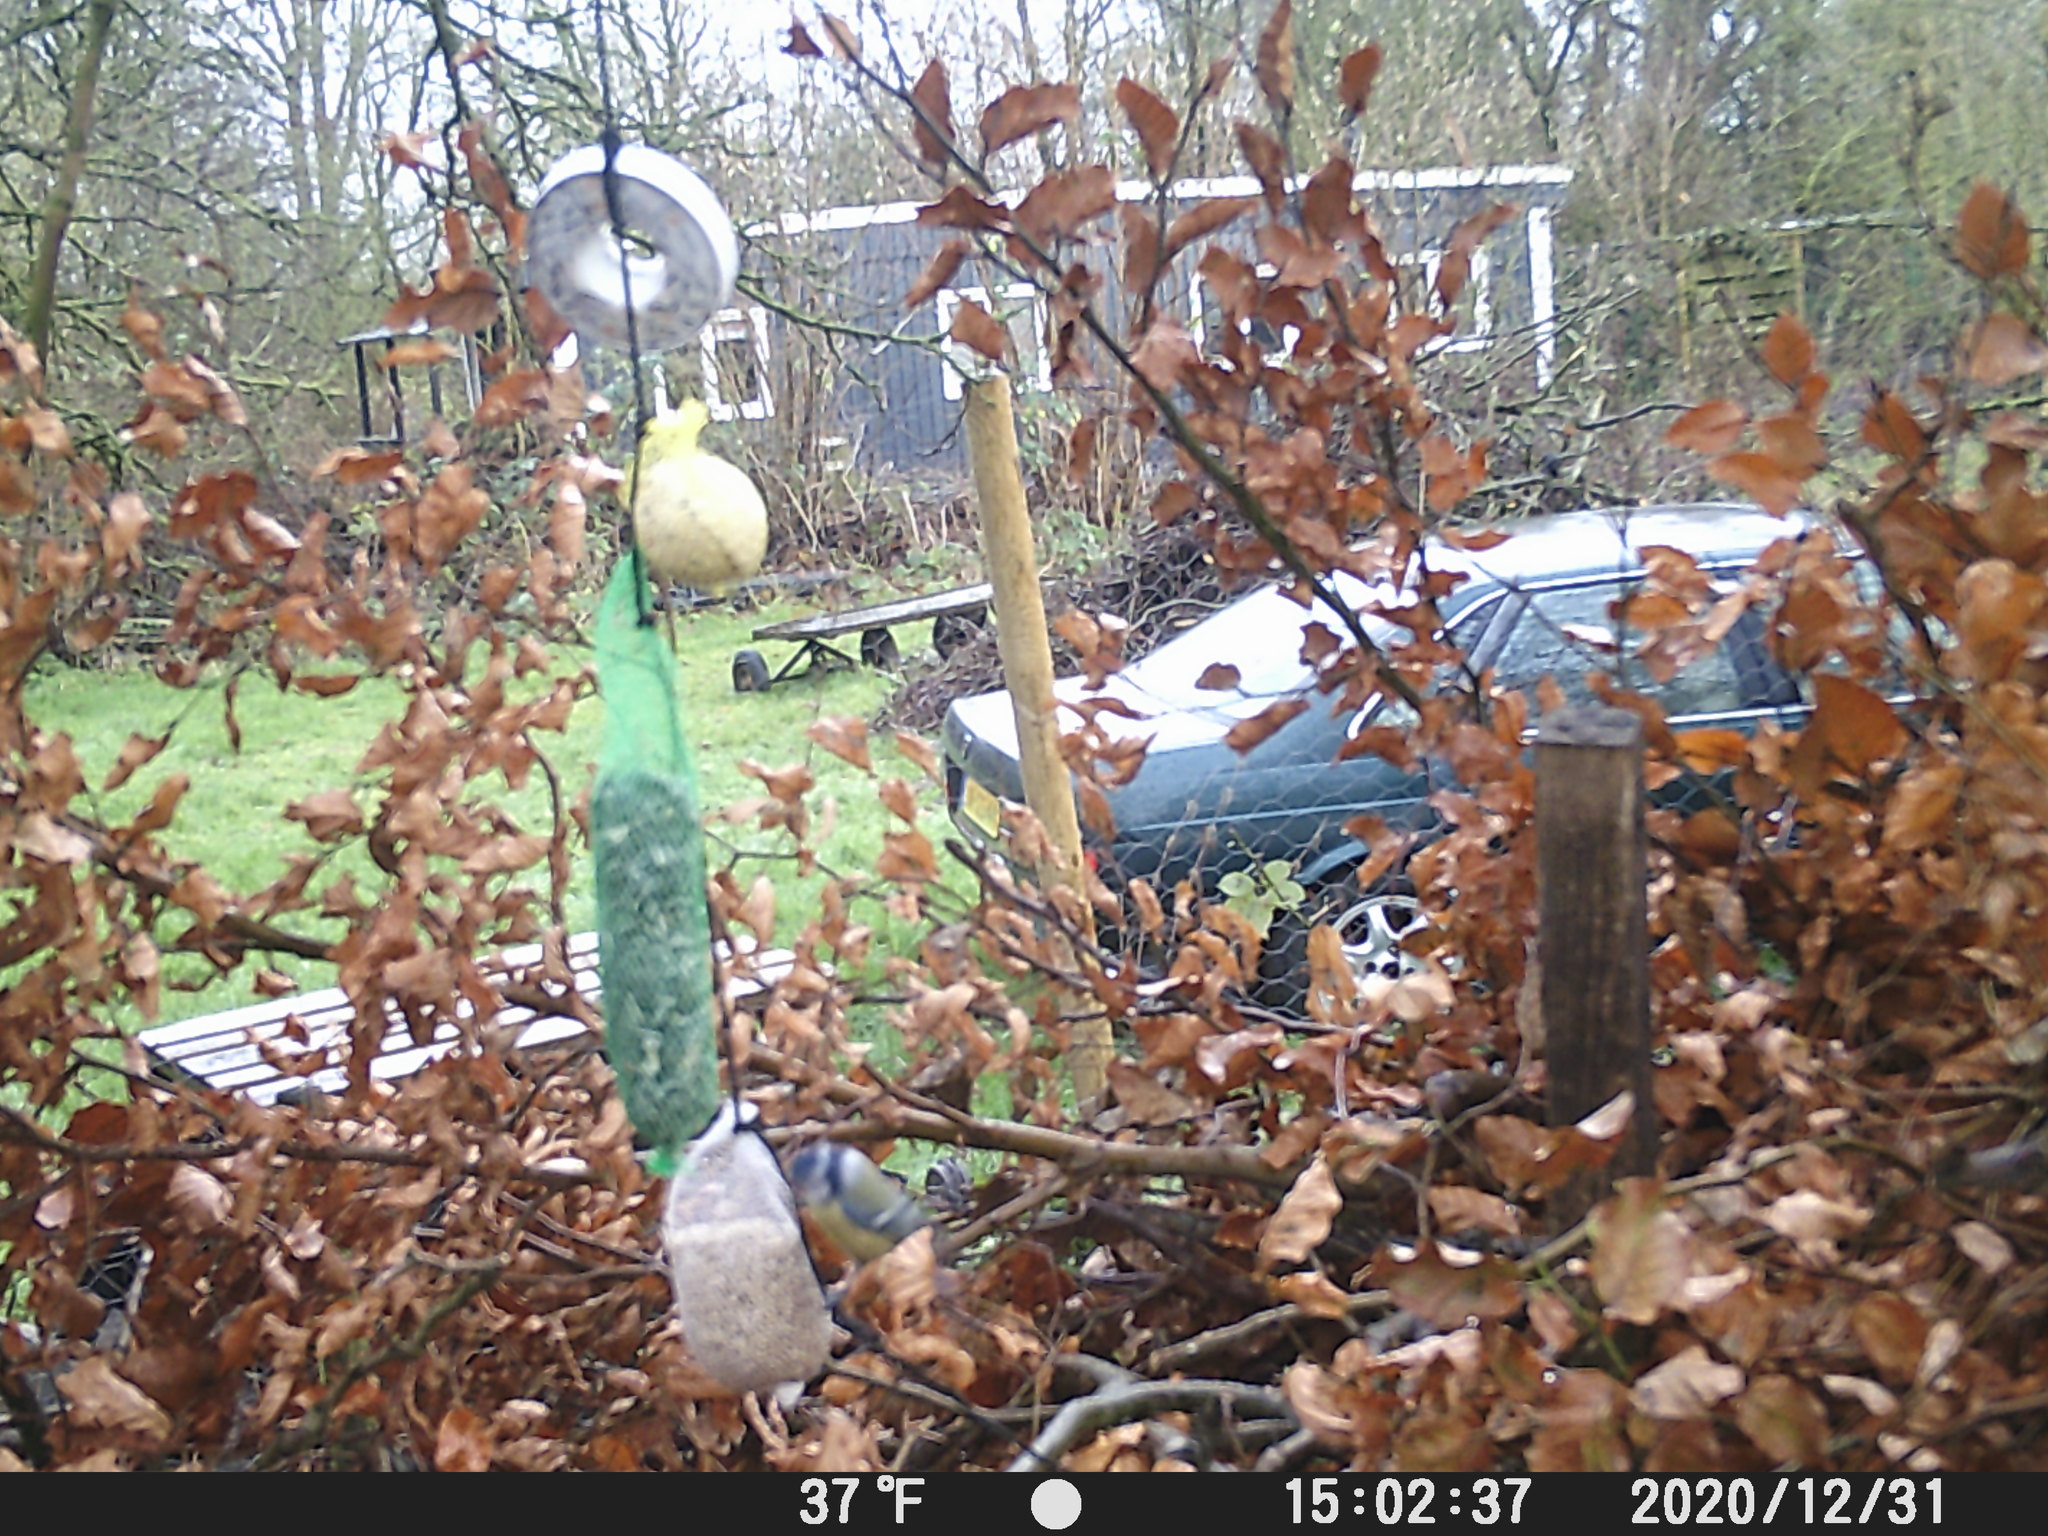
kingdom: Animalia
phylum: Chordata
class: Aves
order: Passeriformes
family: Paridae
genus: Cyanistes
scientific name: Cyanistes caeruleus
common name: Eurasian blue tit
